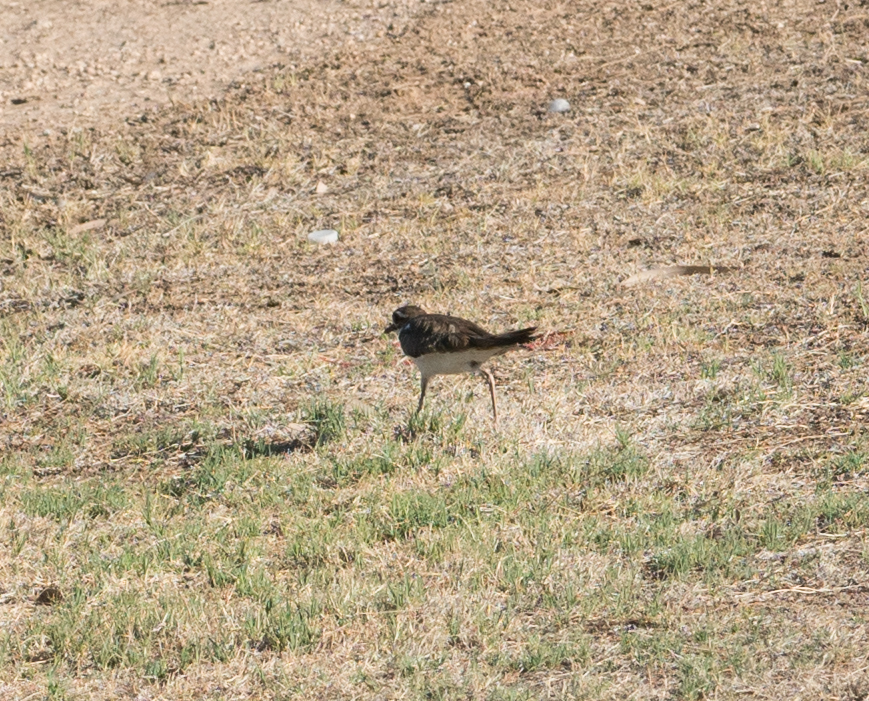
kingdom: Animalia
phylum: Chordata
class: Aves
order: Charadriiformes
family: Charadriidae
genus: Charadrius
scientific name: Charadrius vociferus
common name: Killdeer
